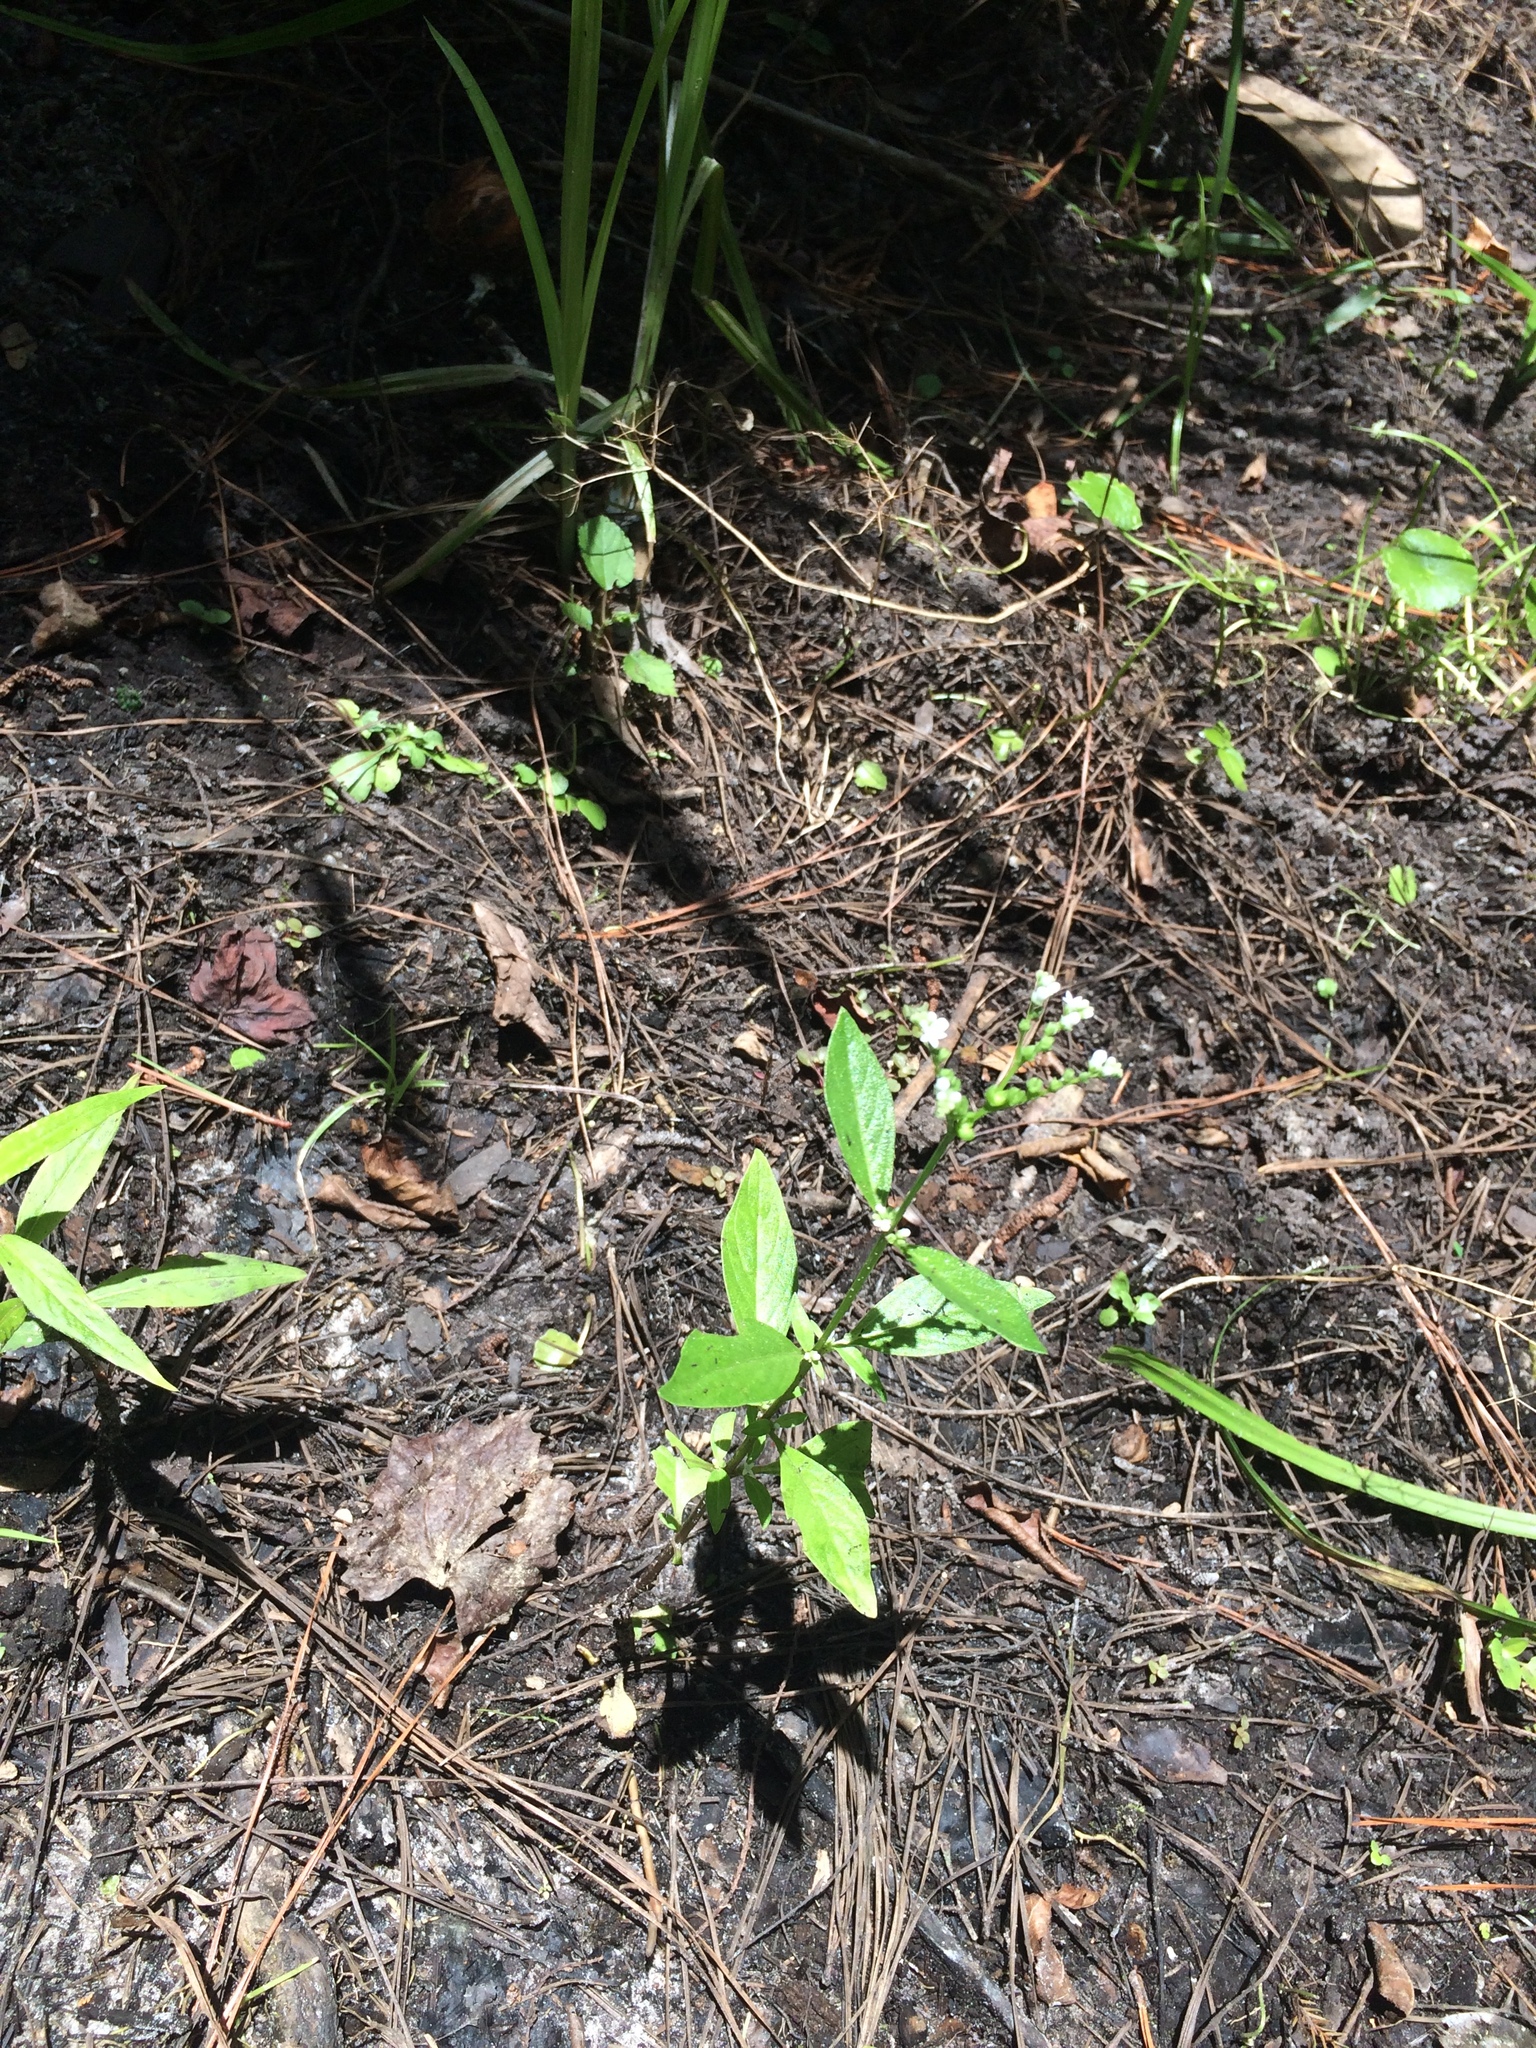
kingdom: Plantae
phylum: Tracheophyta
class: Magnoliopsida
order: Gentianales
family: Loganiaceae
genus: Mitreola
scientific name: Mitreola petiolata
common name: Lax hornpod
